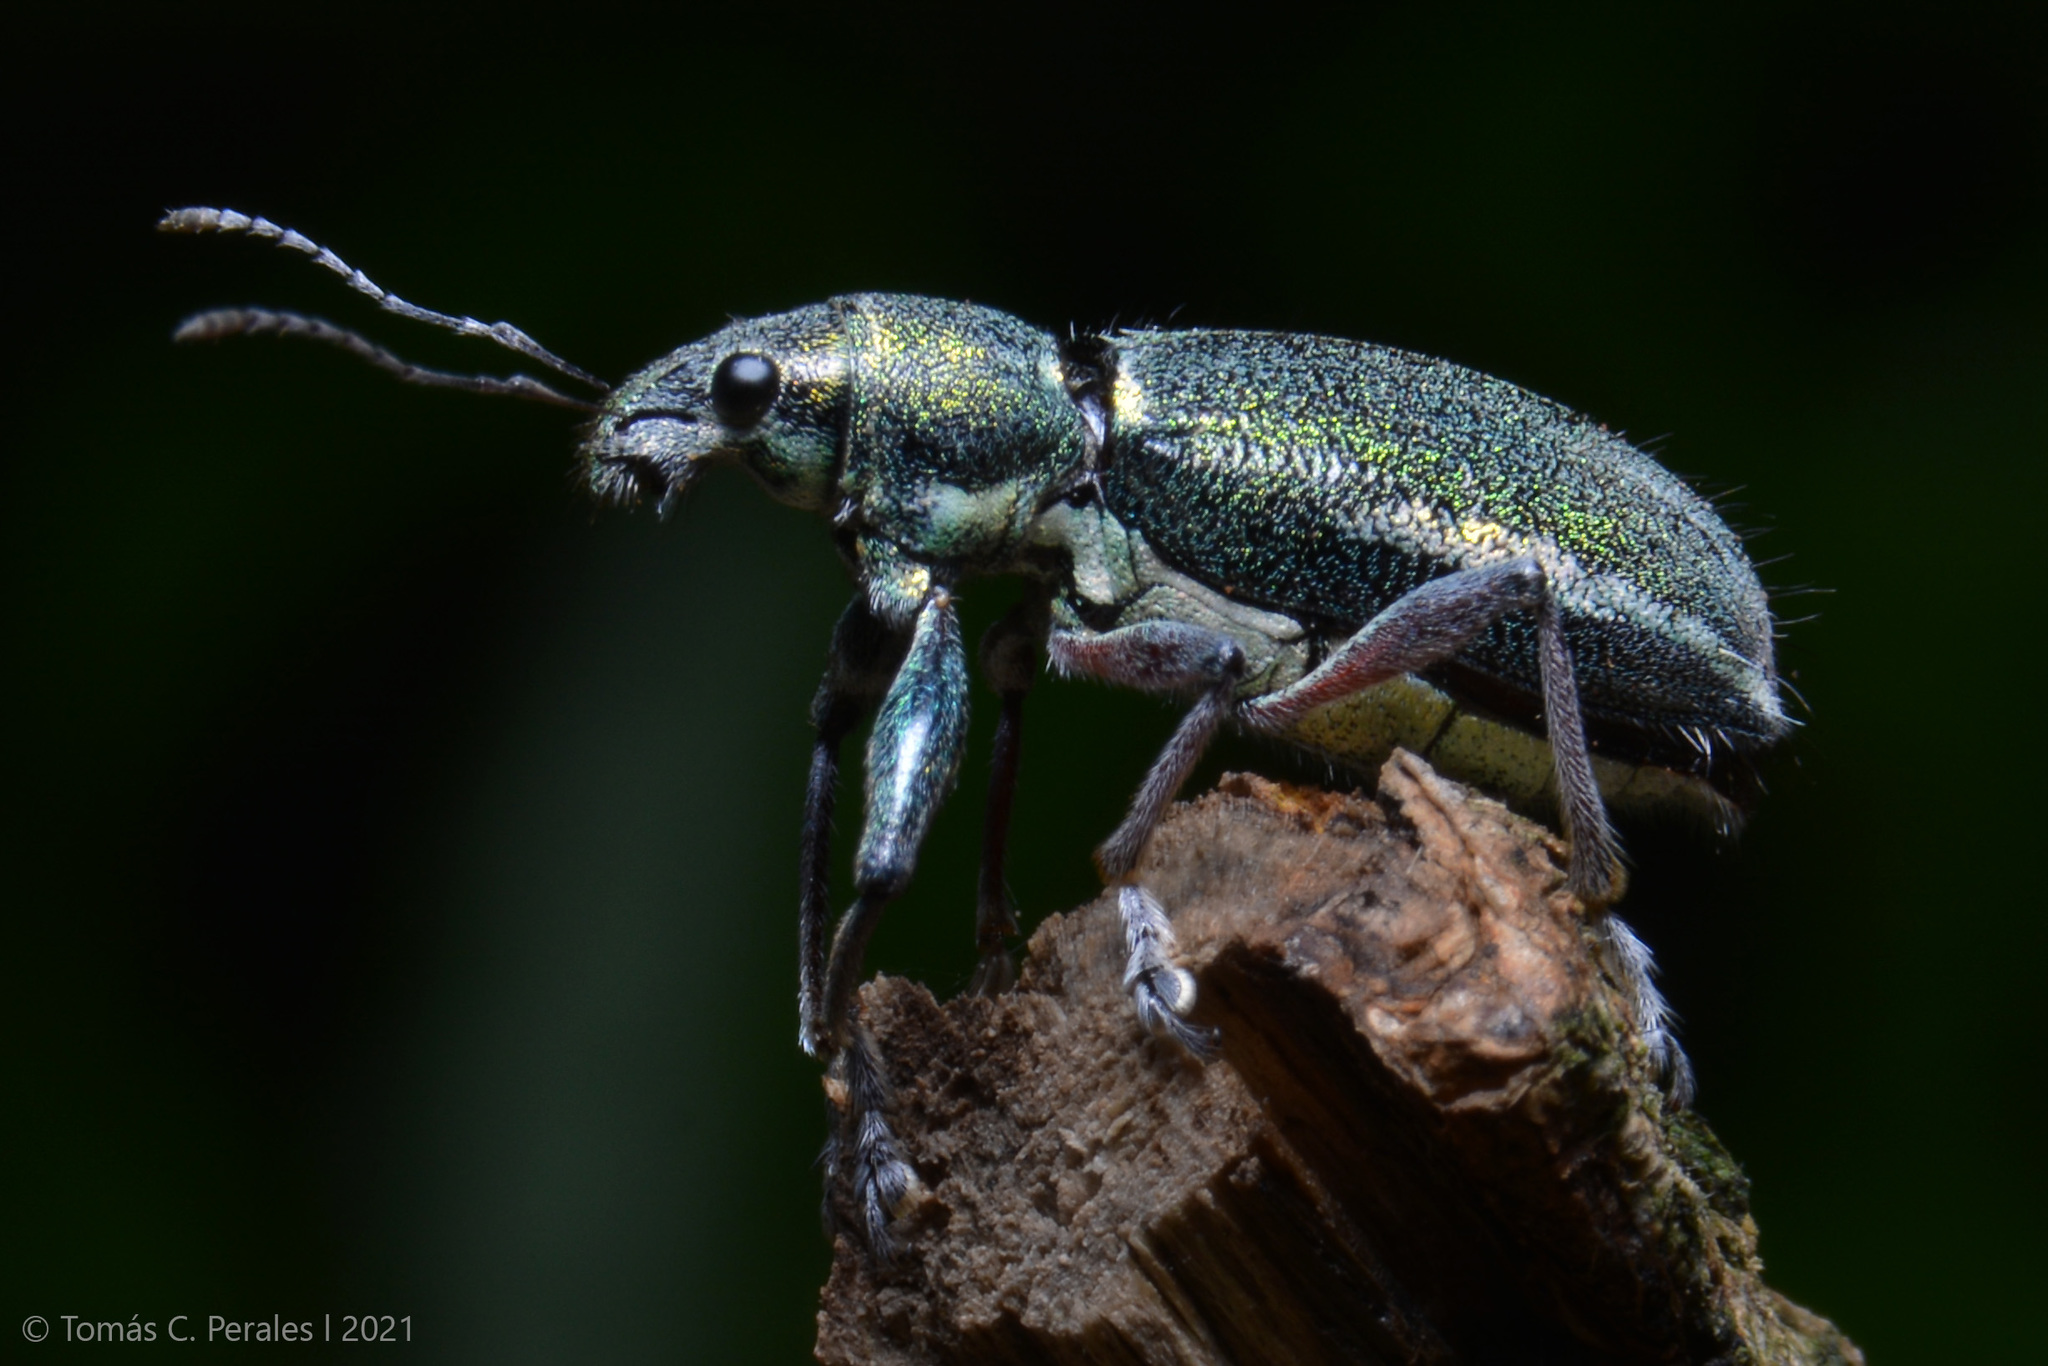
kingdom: Animalia
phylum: Arthropoda
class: Insecta
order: Coleoptera
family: Curculionidae
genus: Naupactus
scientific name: Naupactus auricinctus
